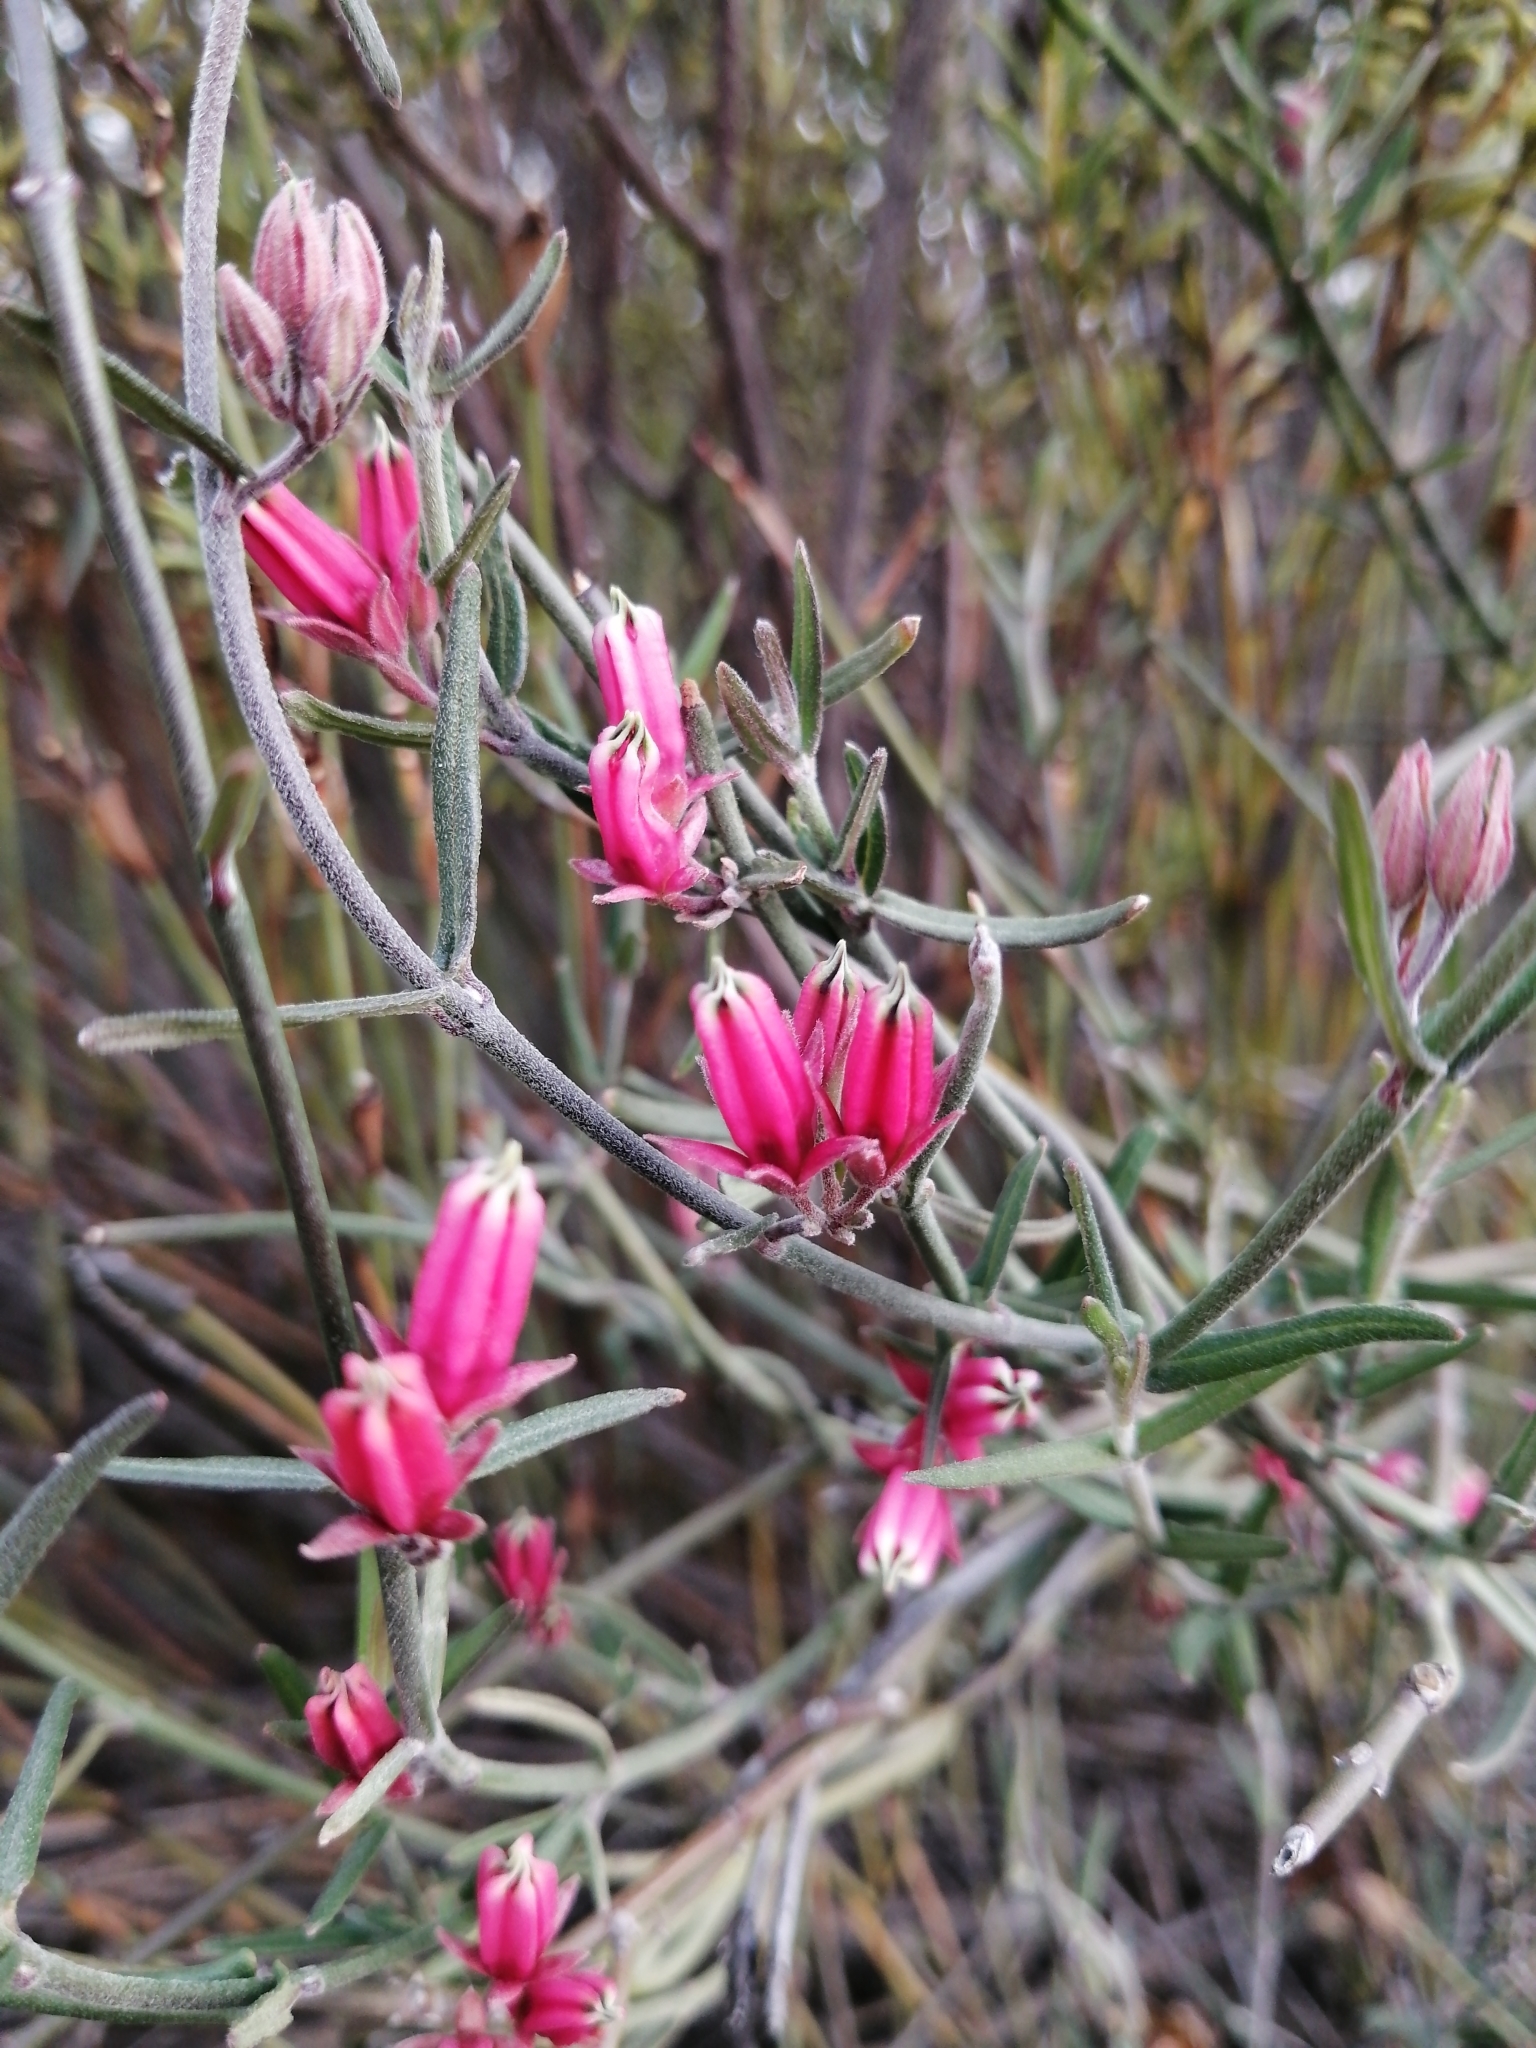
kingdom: Plantae
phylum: Tracheophyta
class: Magnoliopsida
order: Gentianales
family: Apocynaceae
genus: Microloma
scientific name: Microloma sagittatum
